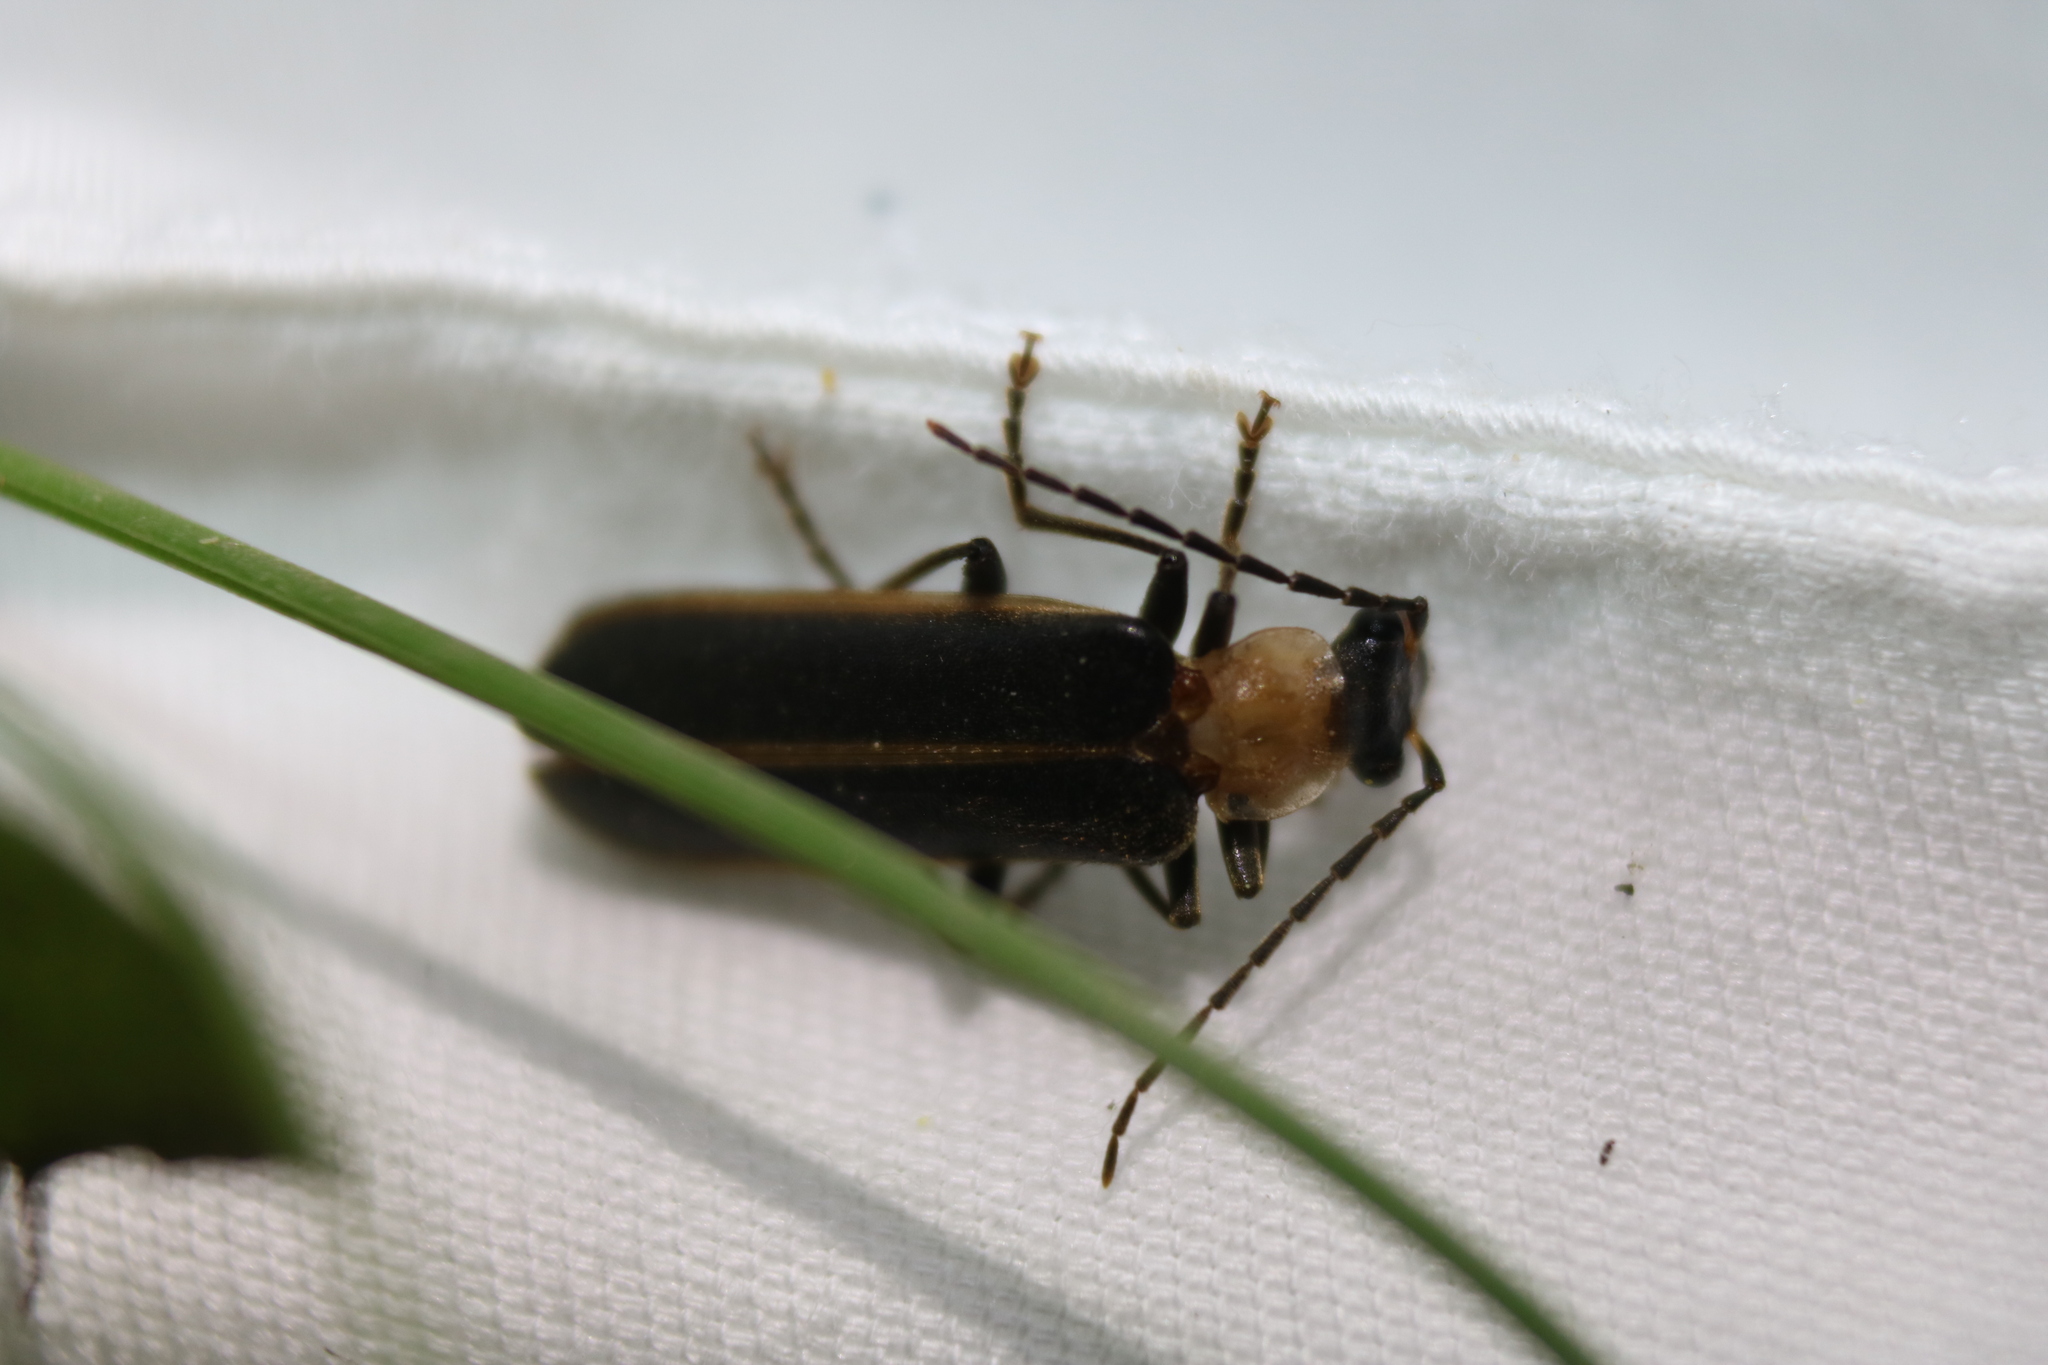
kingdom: Animalia
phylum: Arthropoda
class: Insecta
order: Coleoptera
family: Cantharidae
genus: Podabrus
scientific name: Podabrus flavicollis
